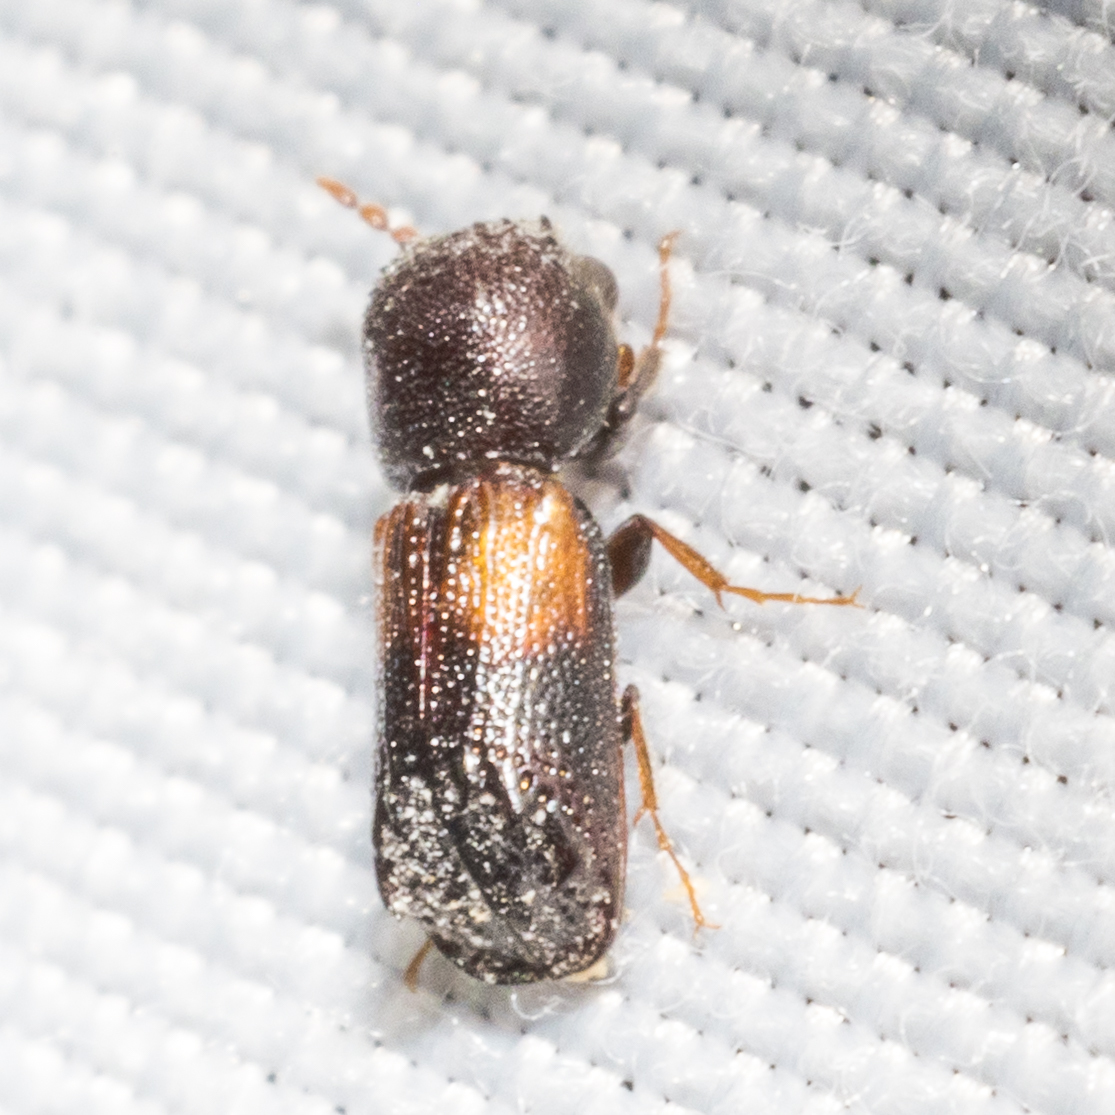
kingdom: Animalia
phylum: Arthropoda
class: Insecta
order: Coleoptera
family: Bostrichidae
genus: Xylobiops
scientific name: Xylobiops basilaris
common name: Red-shouldered bostrichid
